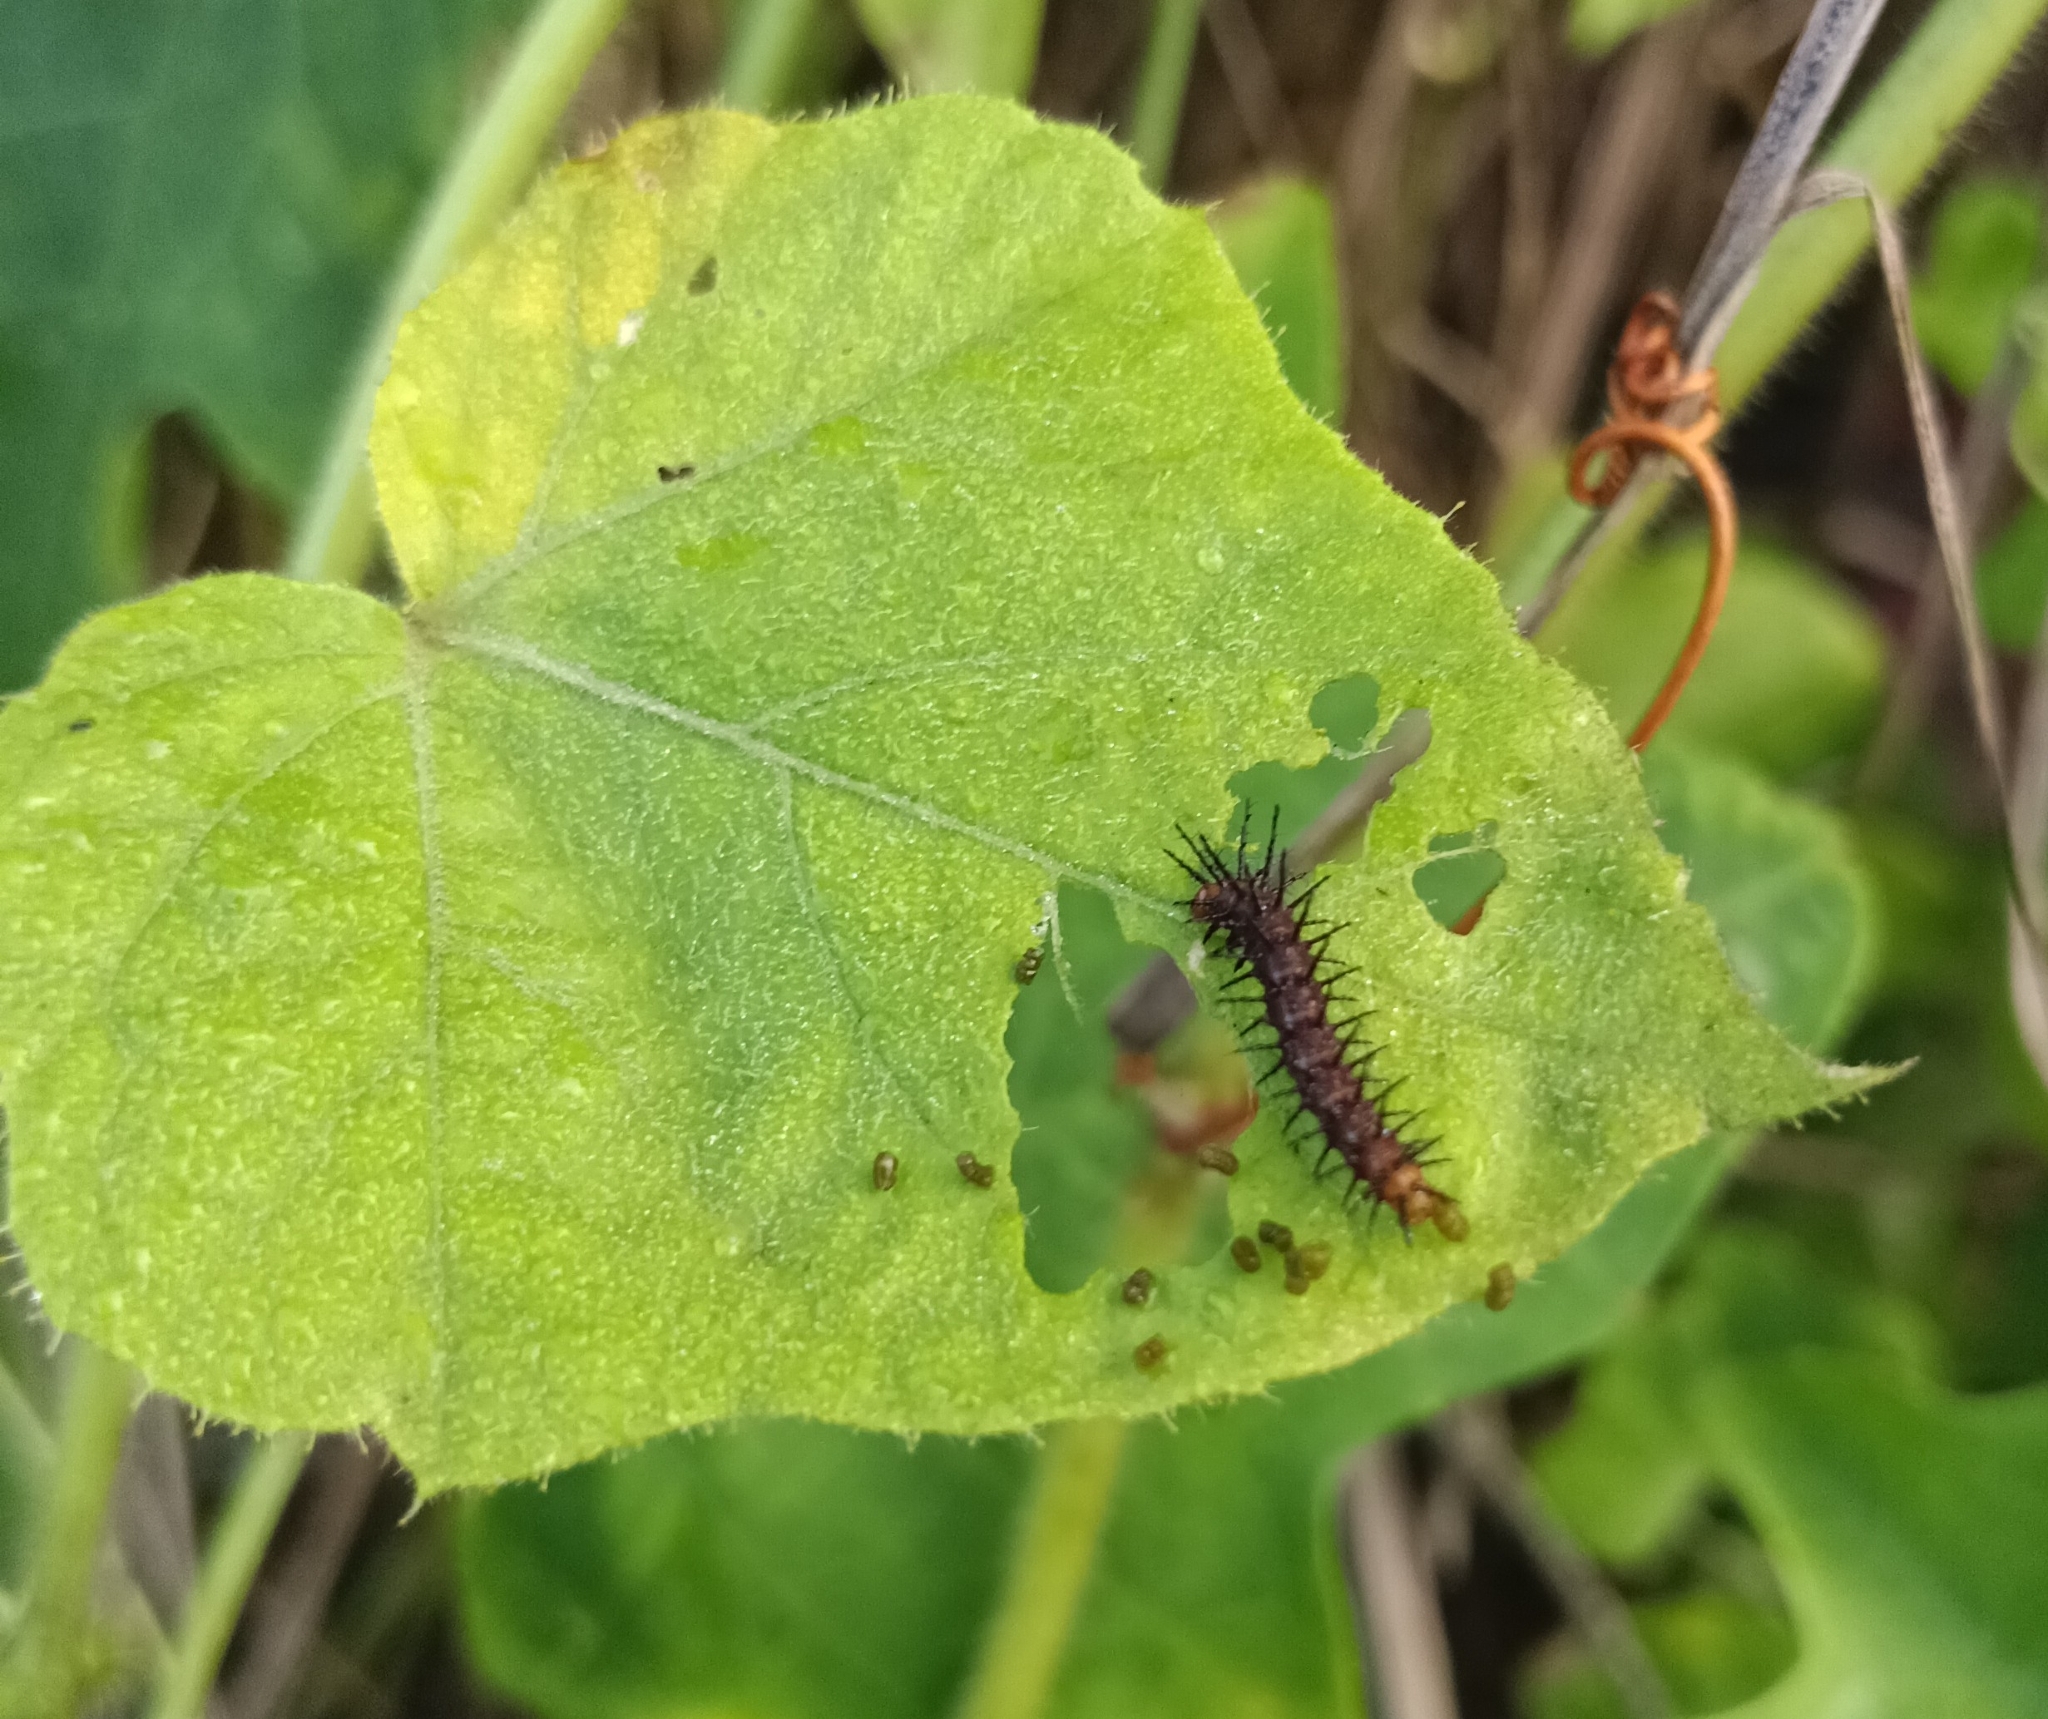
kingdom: Animalia
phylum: Arthropoda
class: Insecta
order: Lepidoptera
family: Nymphalidae
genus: Acraea
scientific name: Acraea terpsicore
